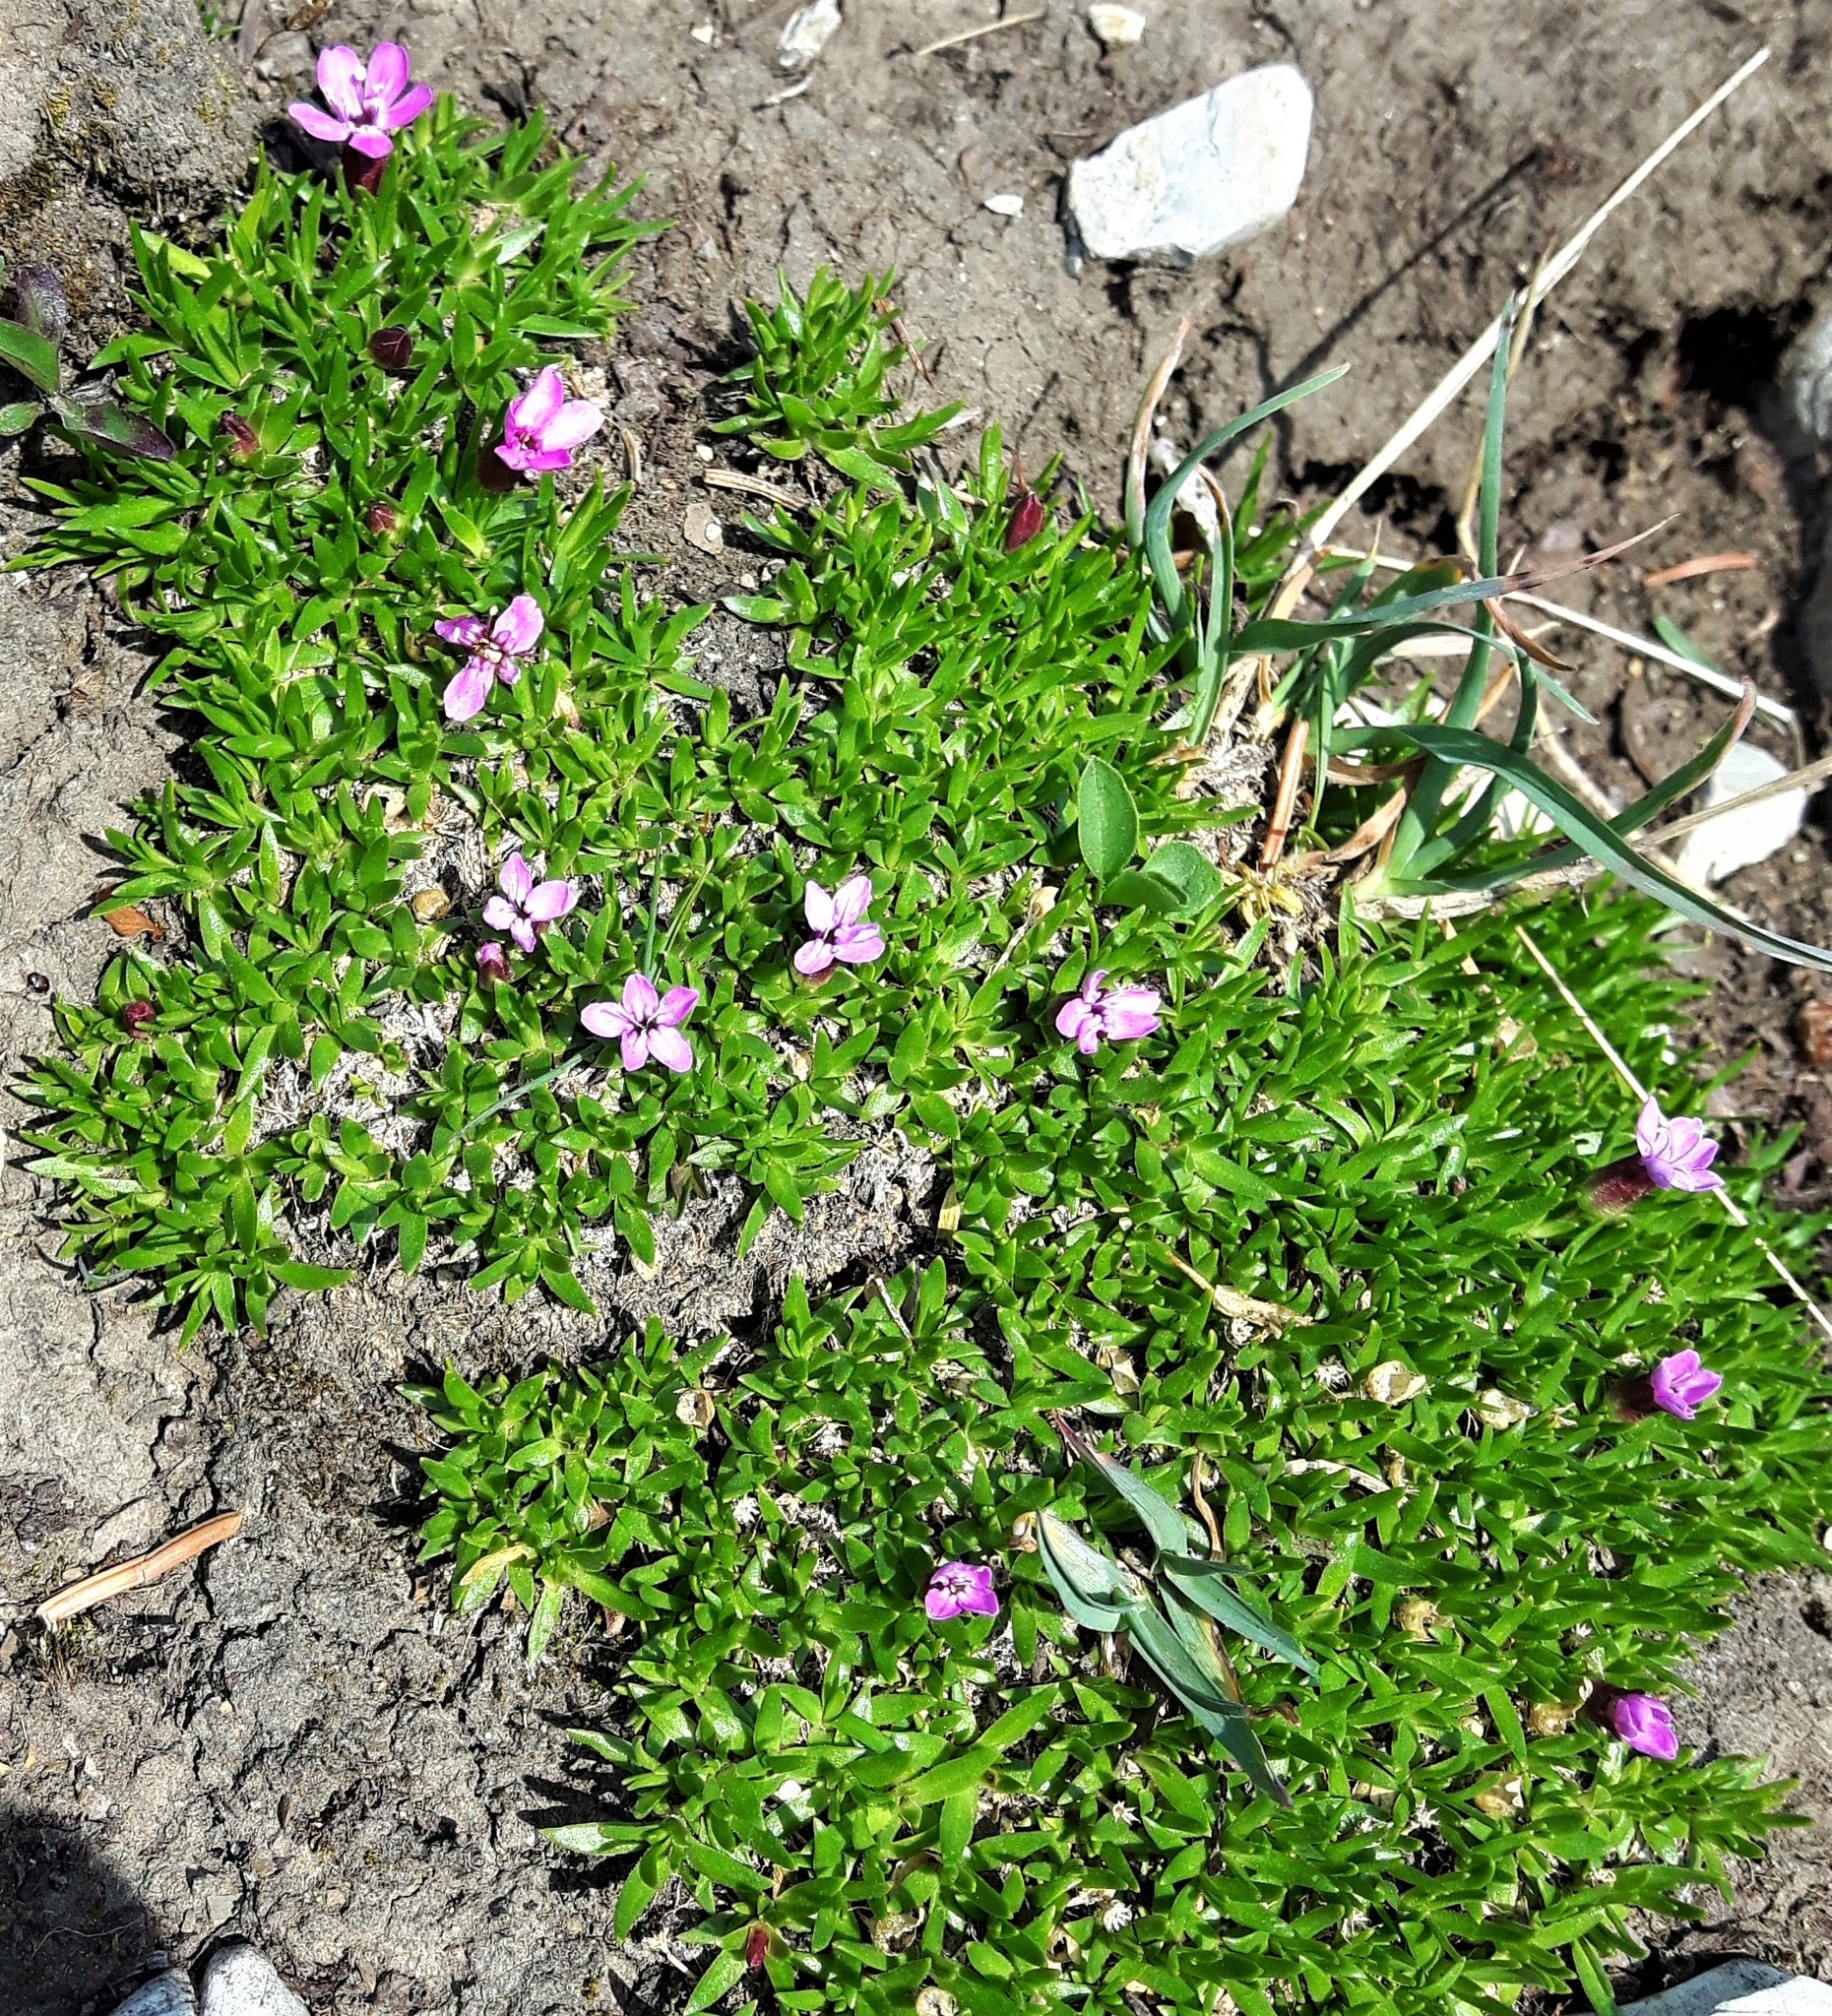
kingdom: Plantae
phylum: Tracheophyta
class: Magnoliopsida
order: Caryophyllales
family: Caryophyllaceae
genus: Silene
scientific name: Silene acaulis
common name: Moss campion
